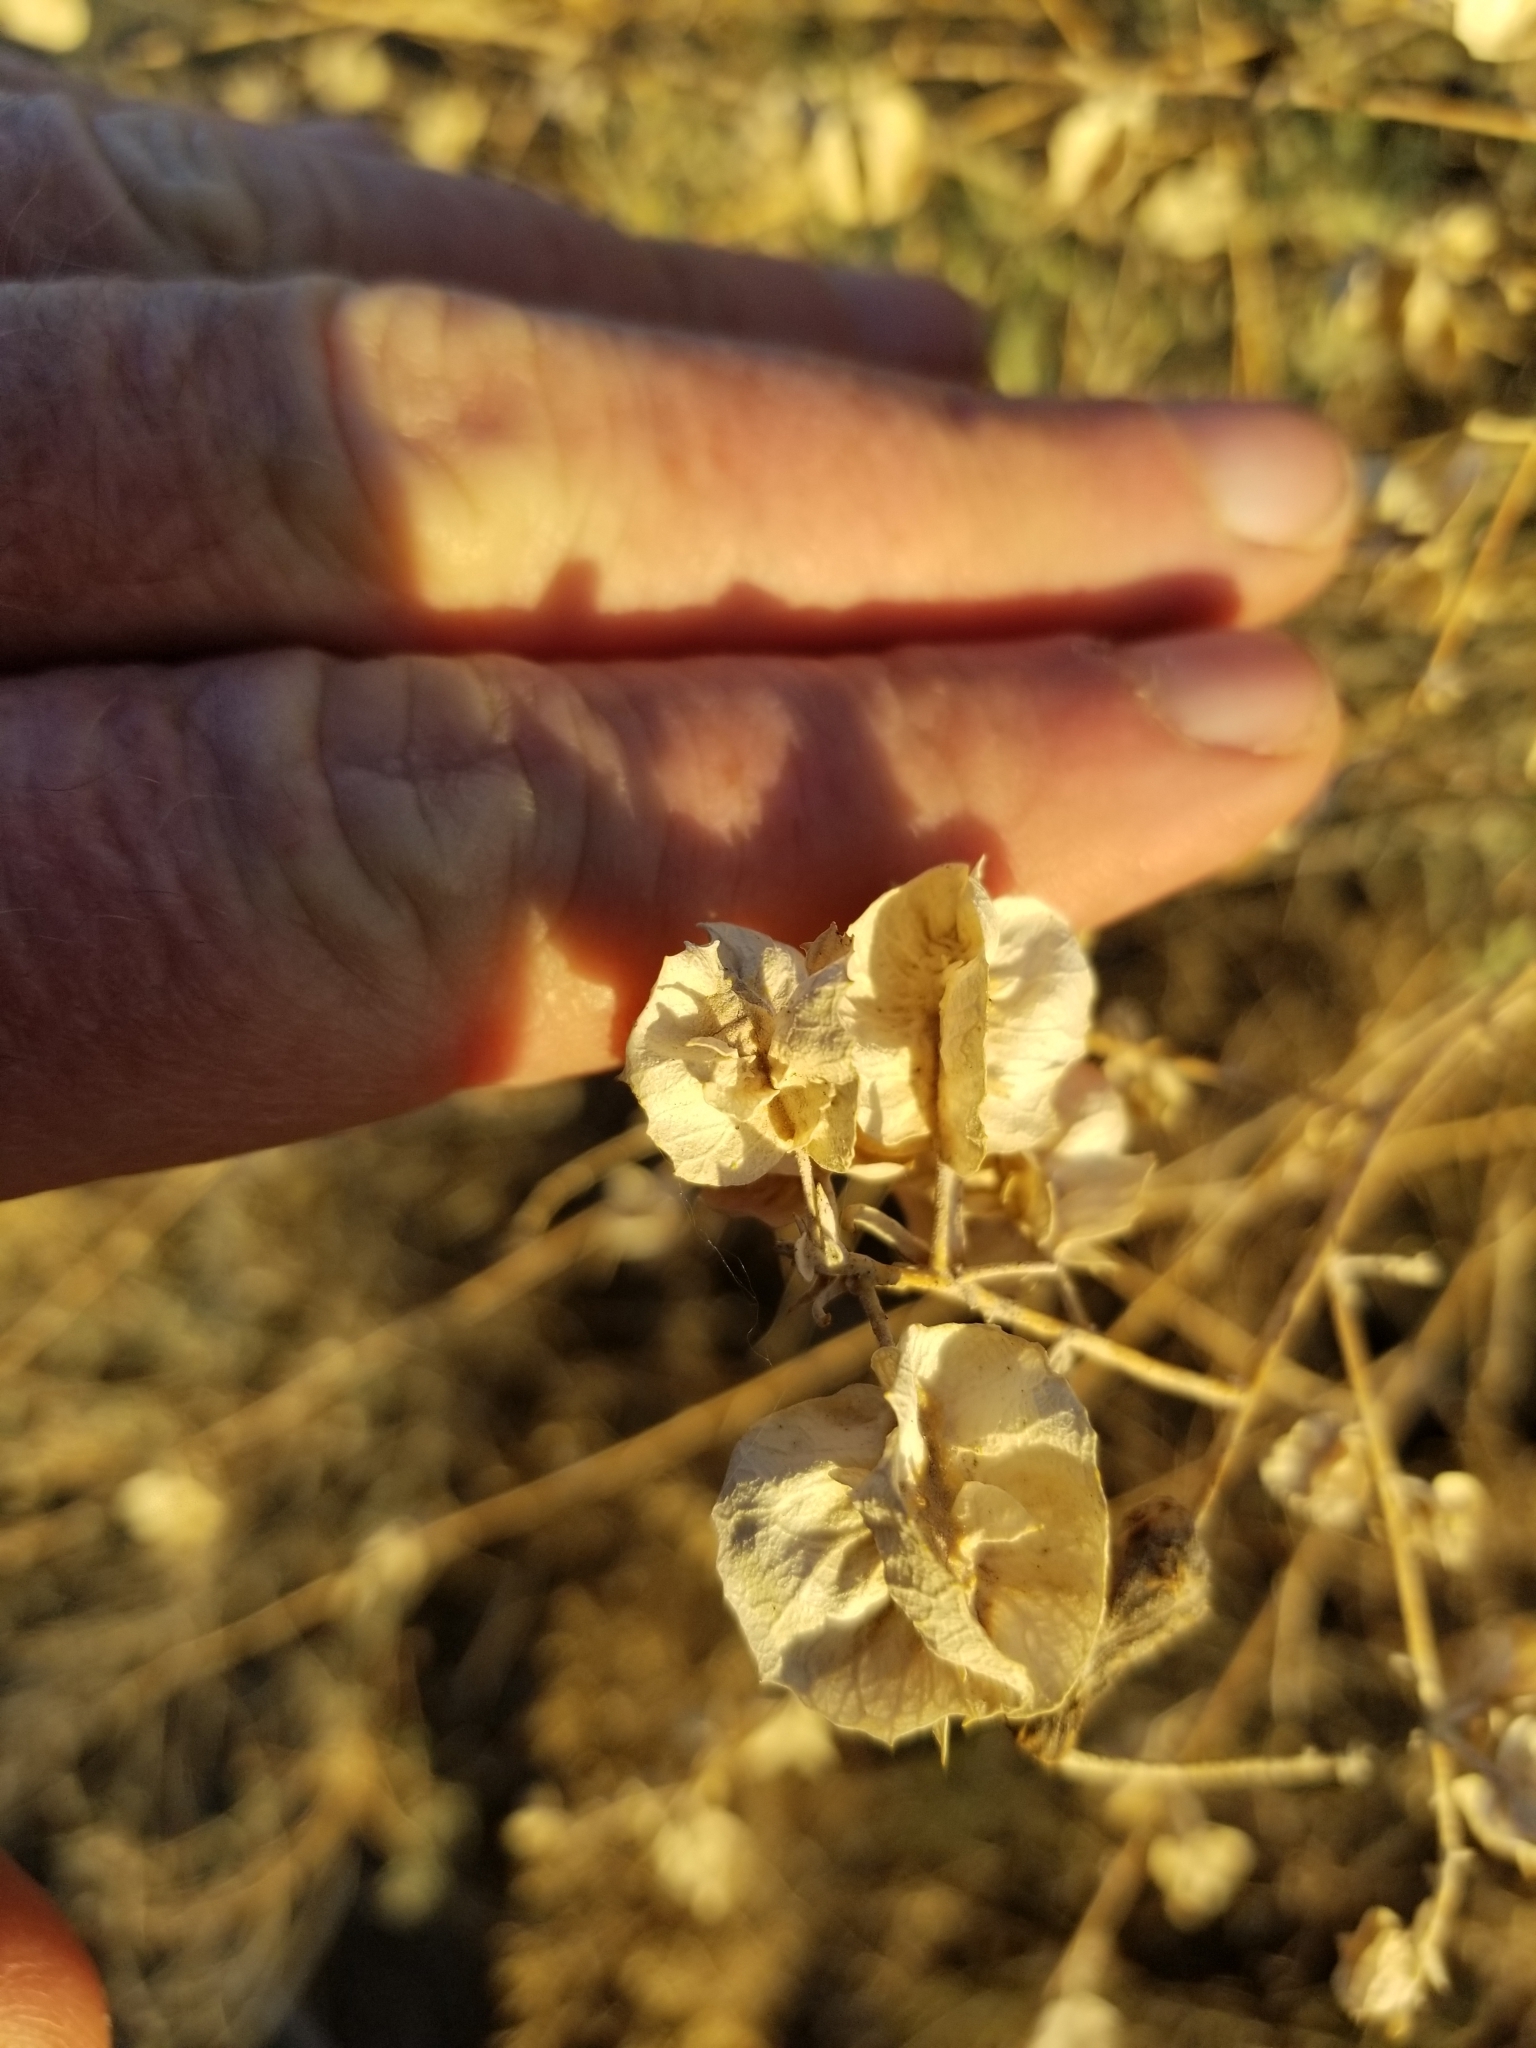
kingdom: Plantae
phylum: Tracheophyta
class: Magnoliopsida
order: Caryophyllales
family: Amaranthaceae
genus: Atriplex
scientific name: Atriplex canescens
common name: Four-wing saltbush
